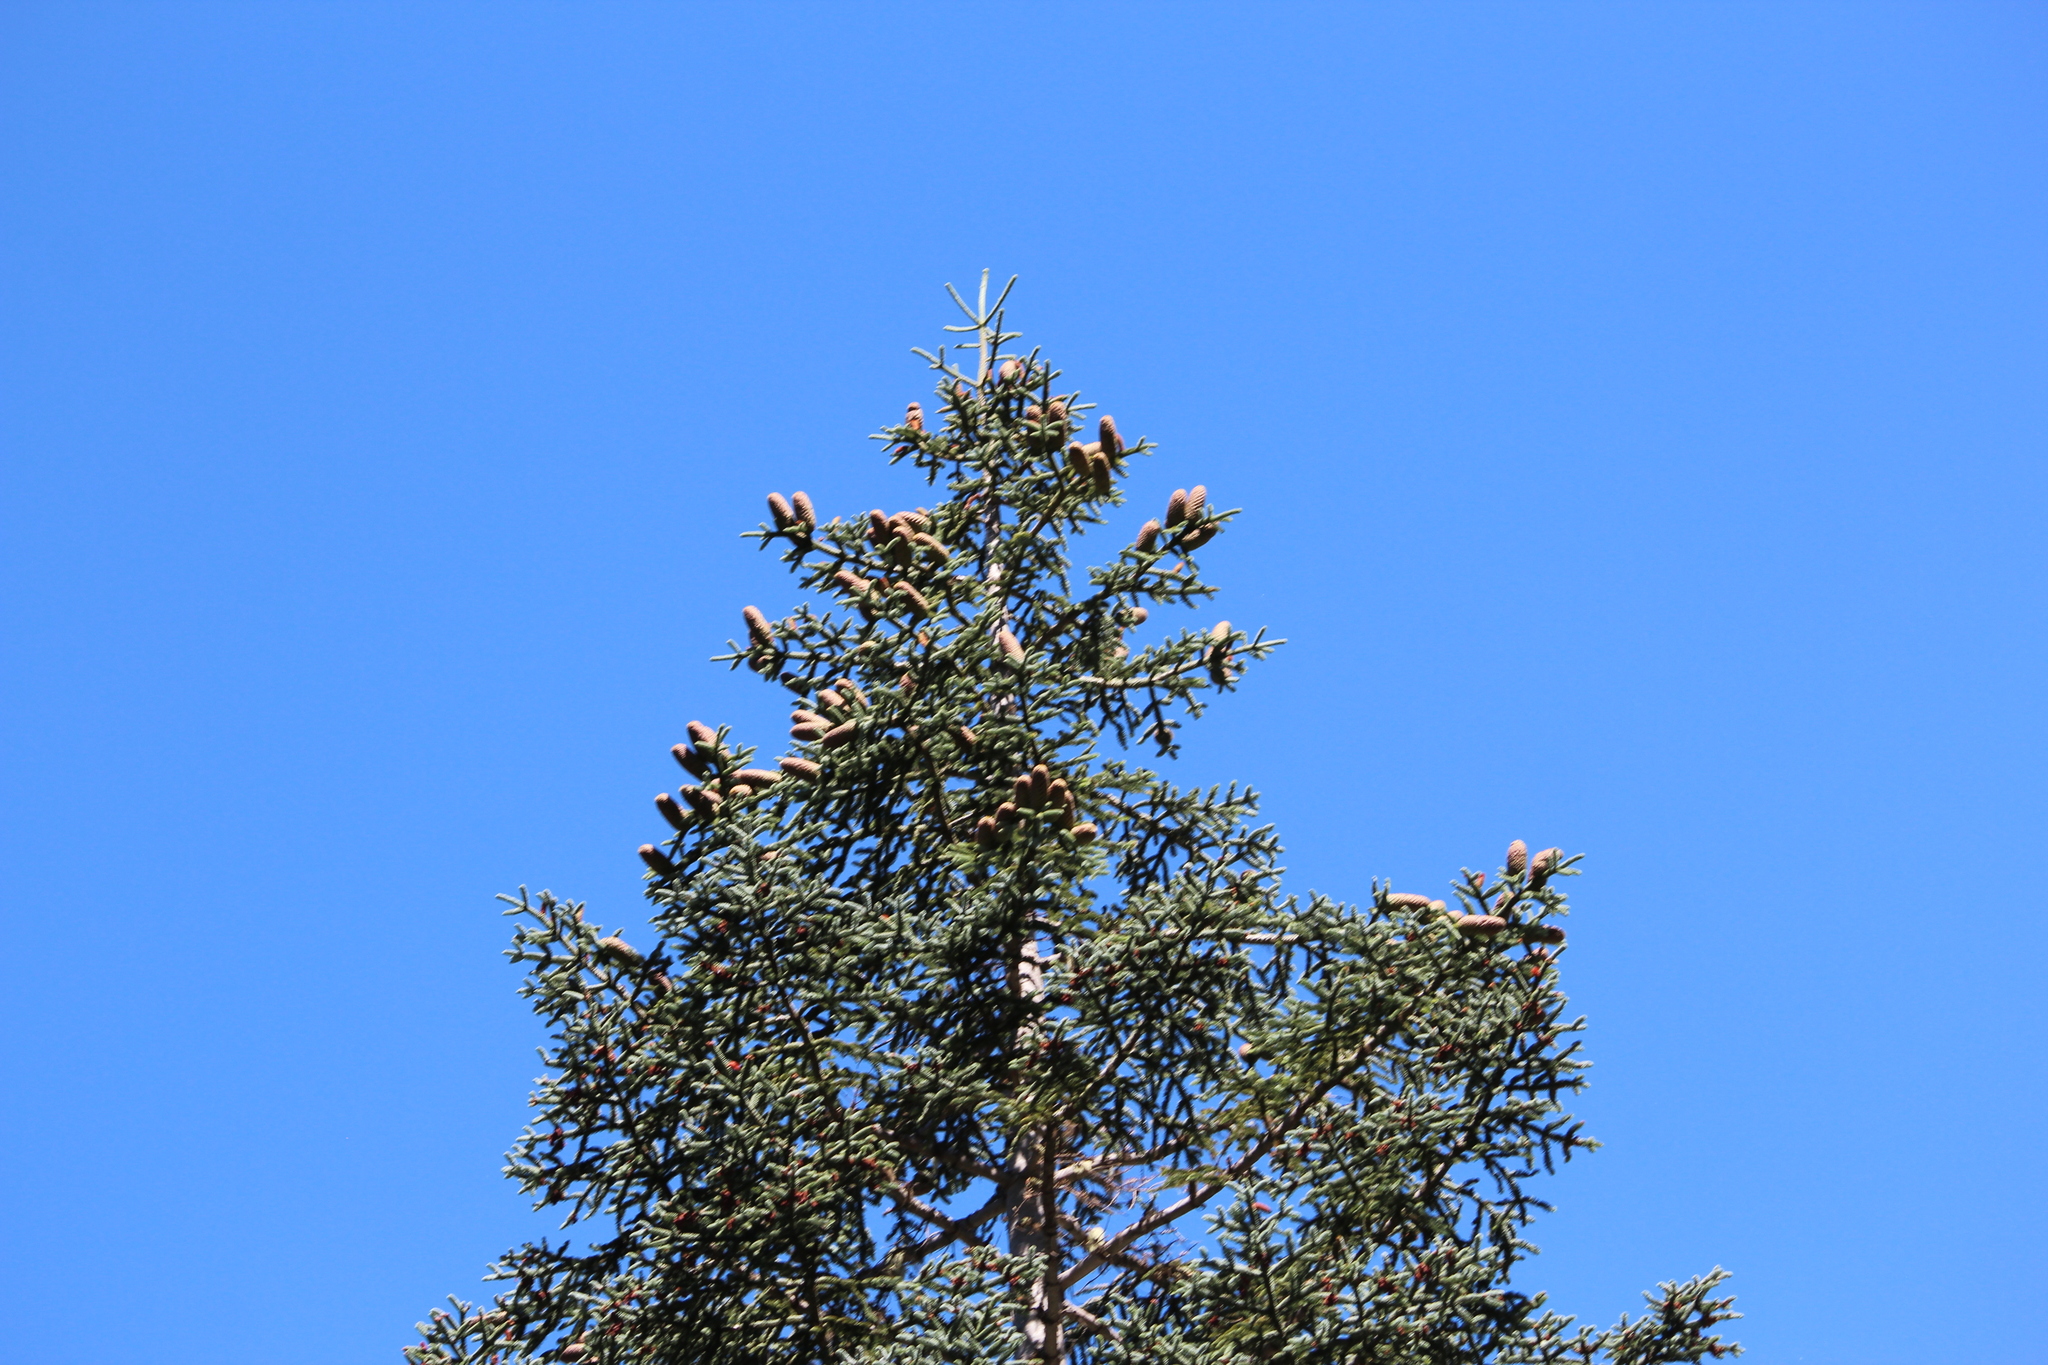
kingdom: Plantae
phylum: Tracheophyta
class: Pinopsida
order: Pinales
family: Pinaceae
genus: Abies
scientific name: Abies procera
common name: Noble fir
